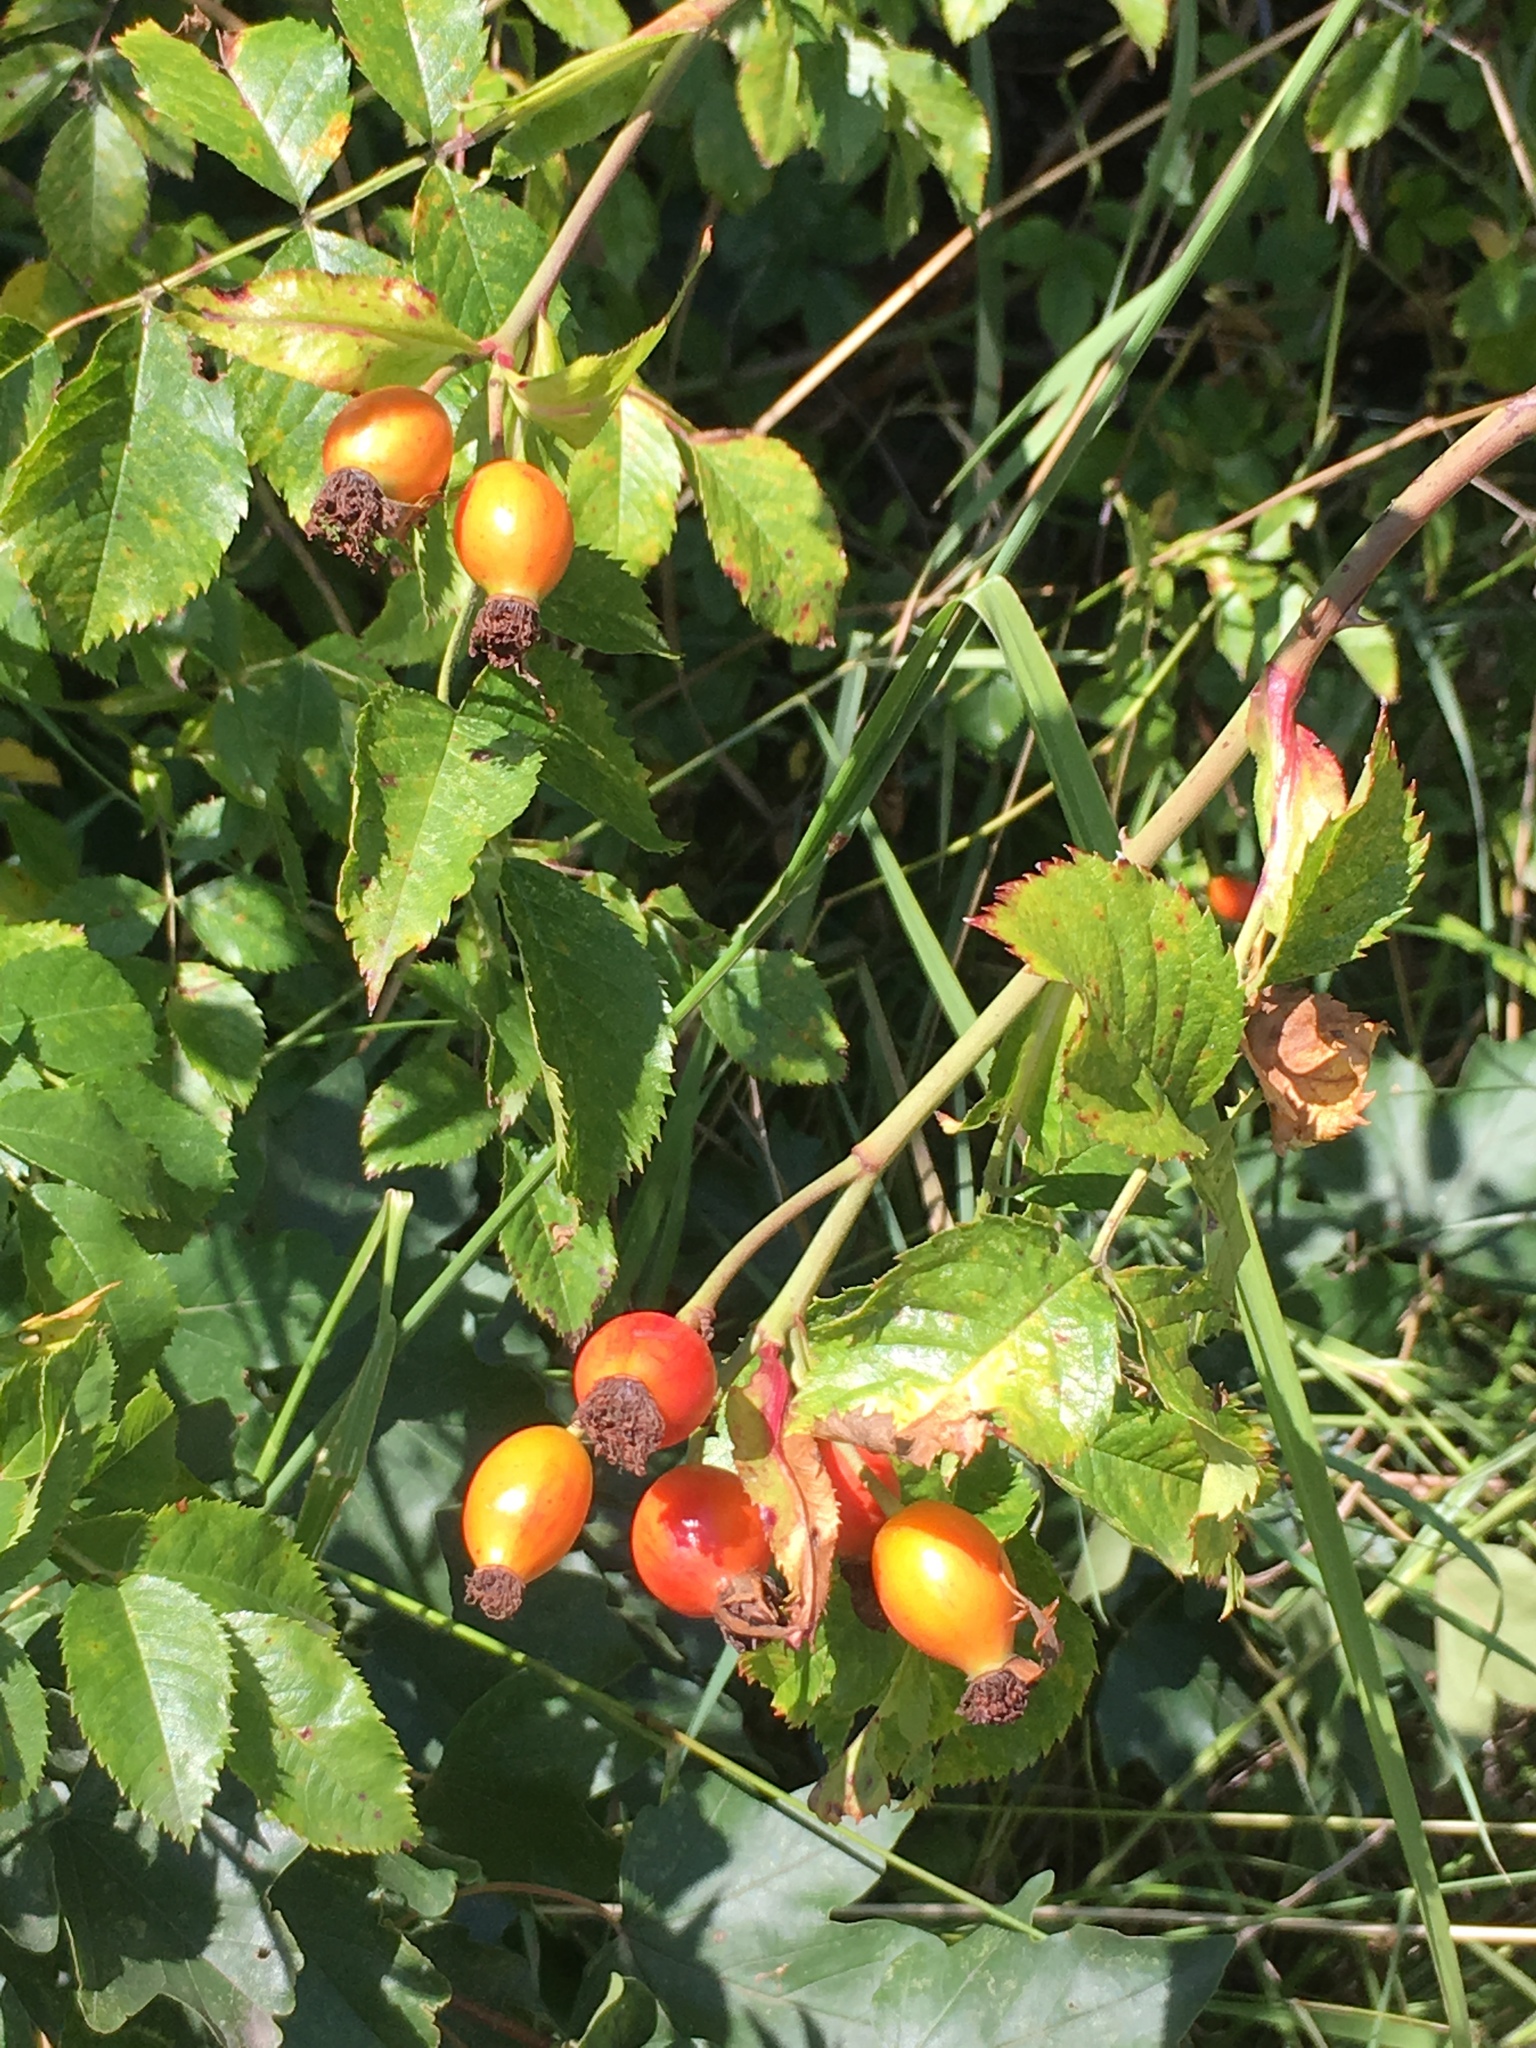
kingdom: Plantae
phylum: Tracheophyta
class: Magnoliopsida
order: Rosales
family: Rosaceae
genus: Rosa
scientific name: Rosa canina
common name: Dog rose
